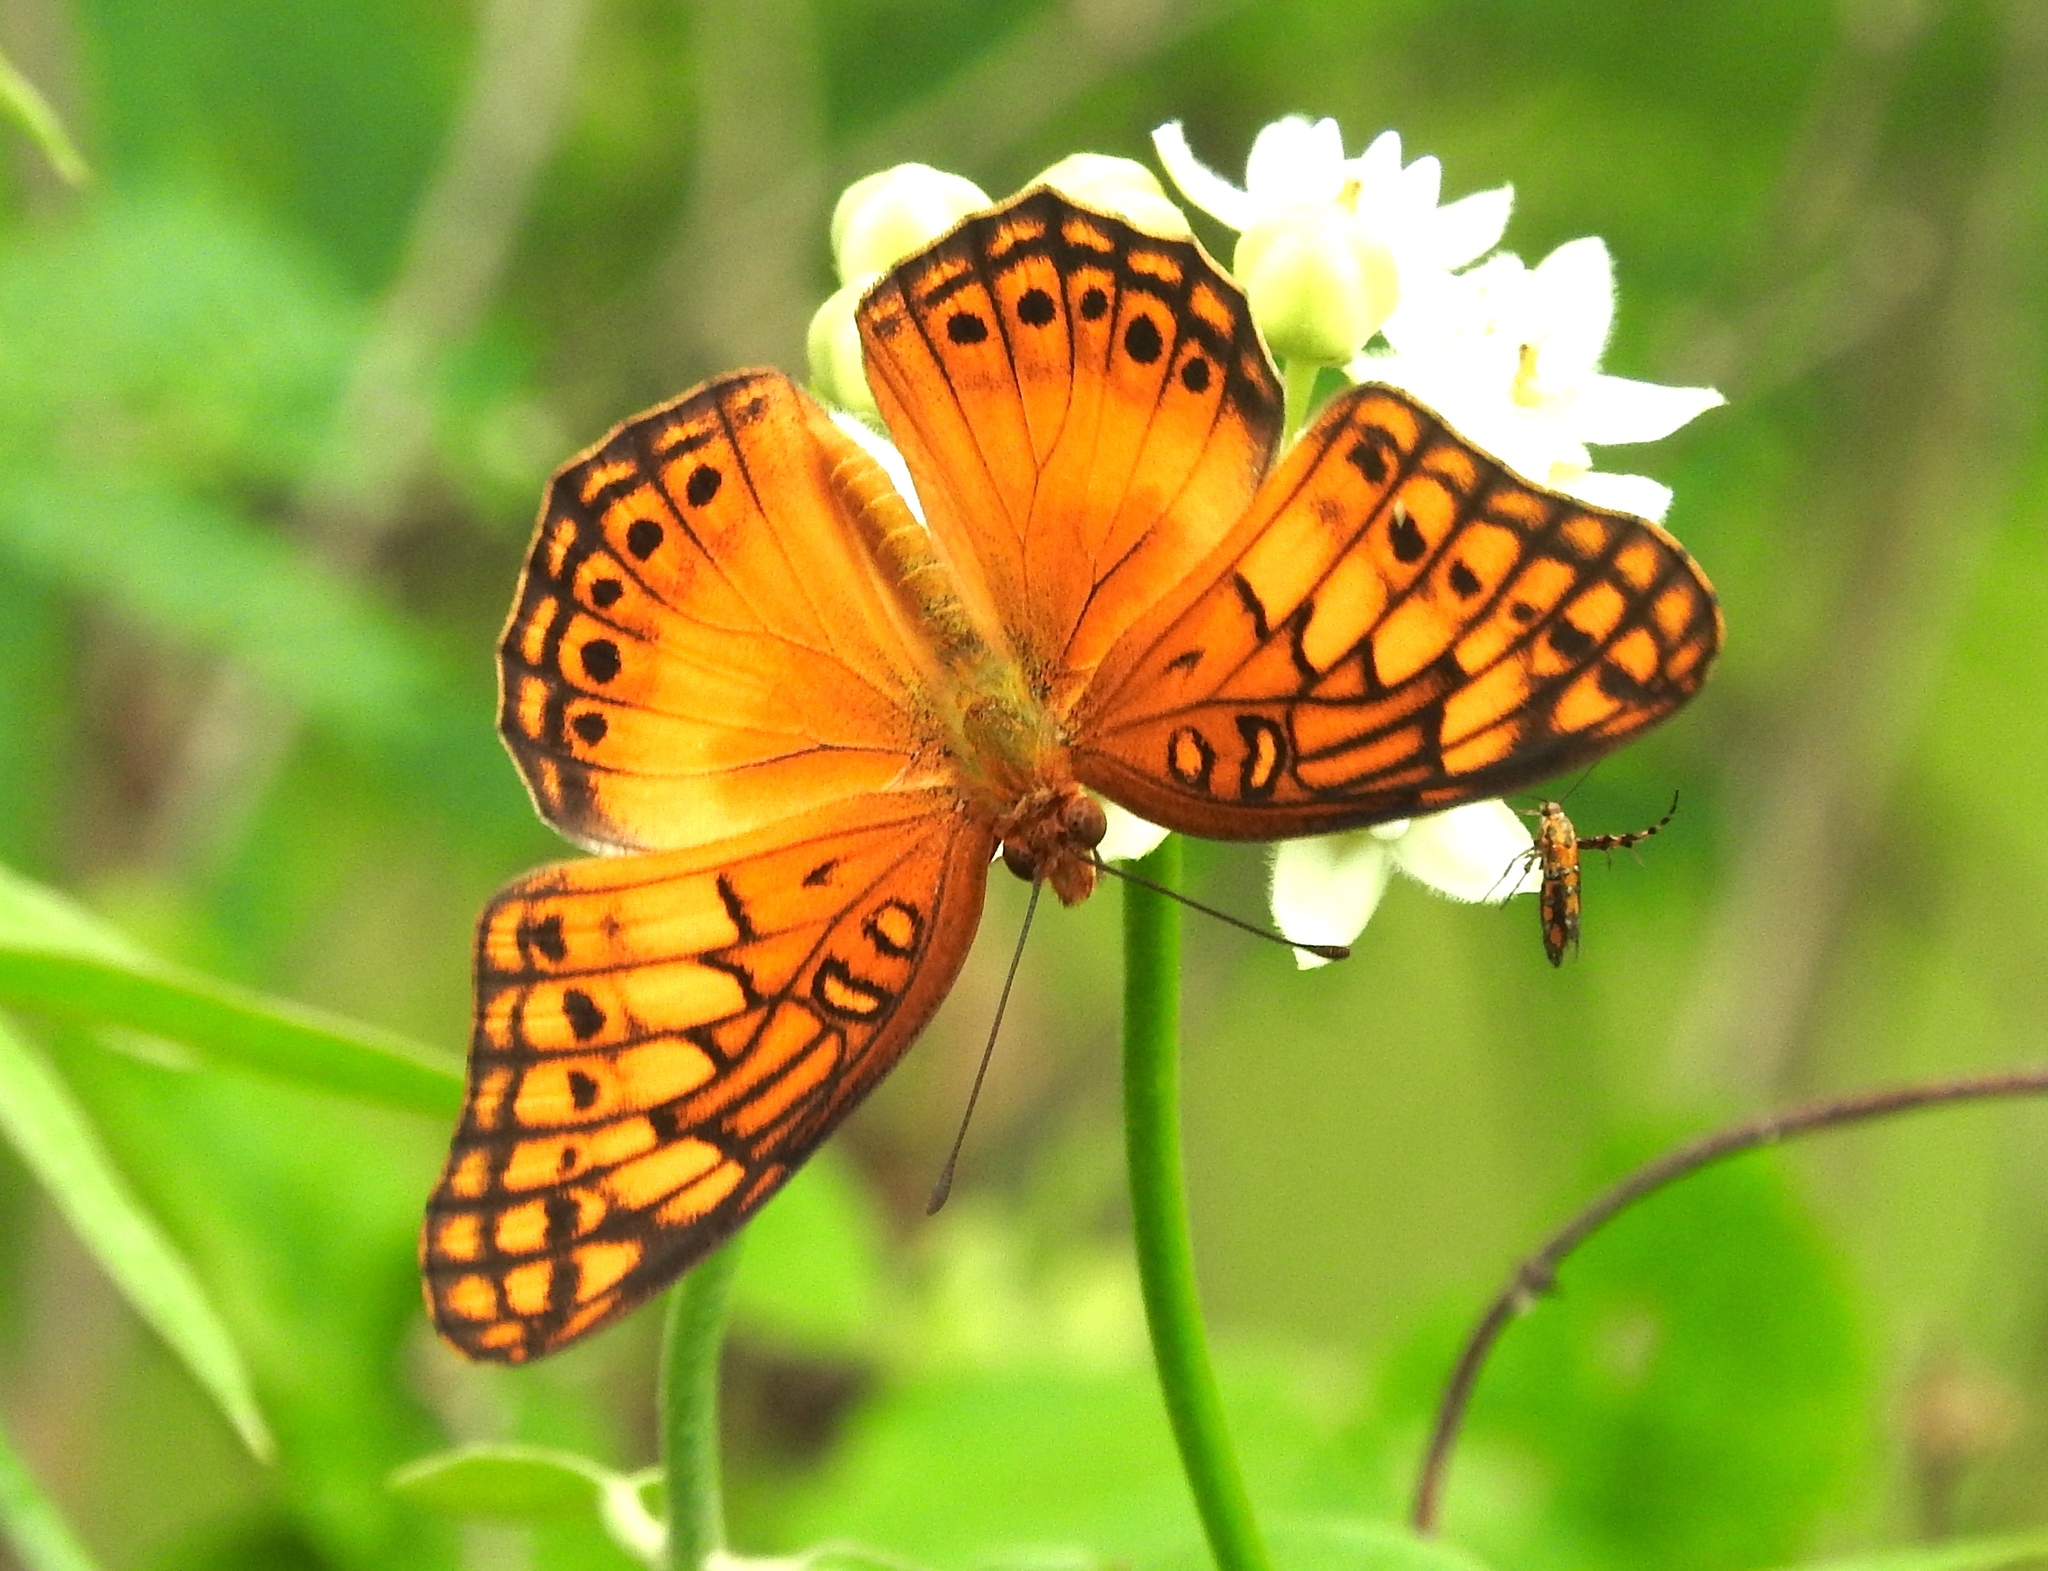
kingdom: Animalia
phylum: Arthropoda
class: Insecta
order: Lepidoptera
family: Nymphalidae
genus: Euptoieta
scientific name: Euptoieta hegesia
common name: Mexican fritillary
